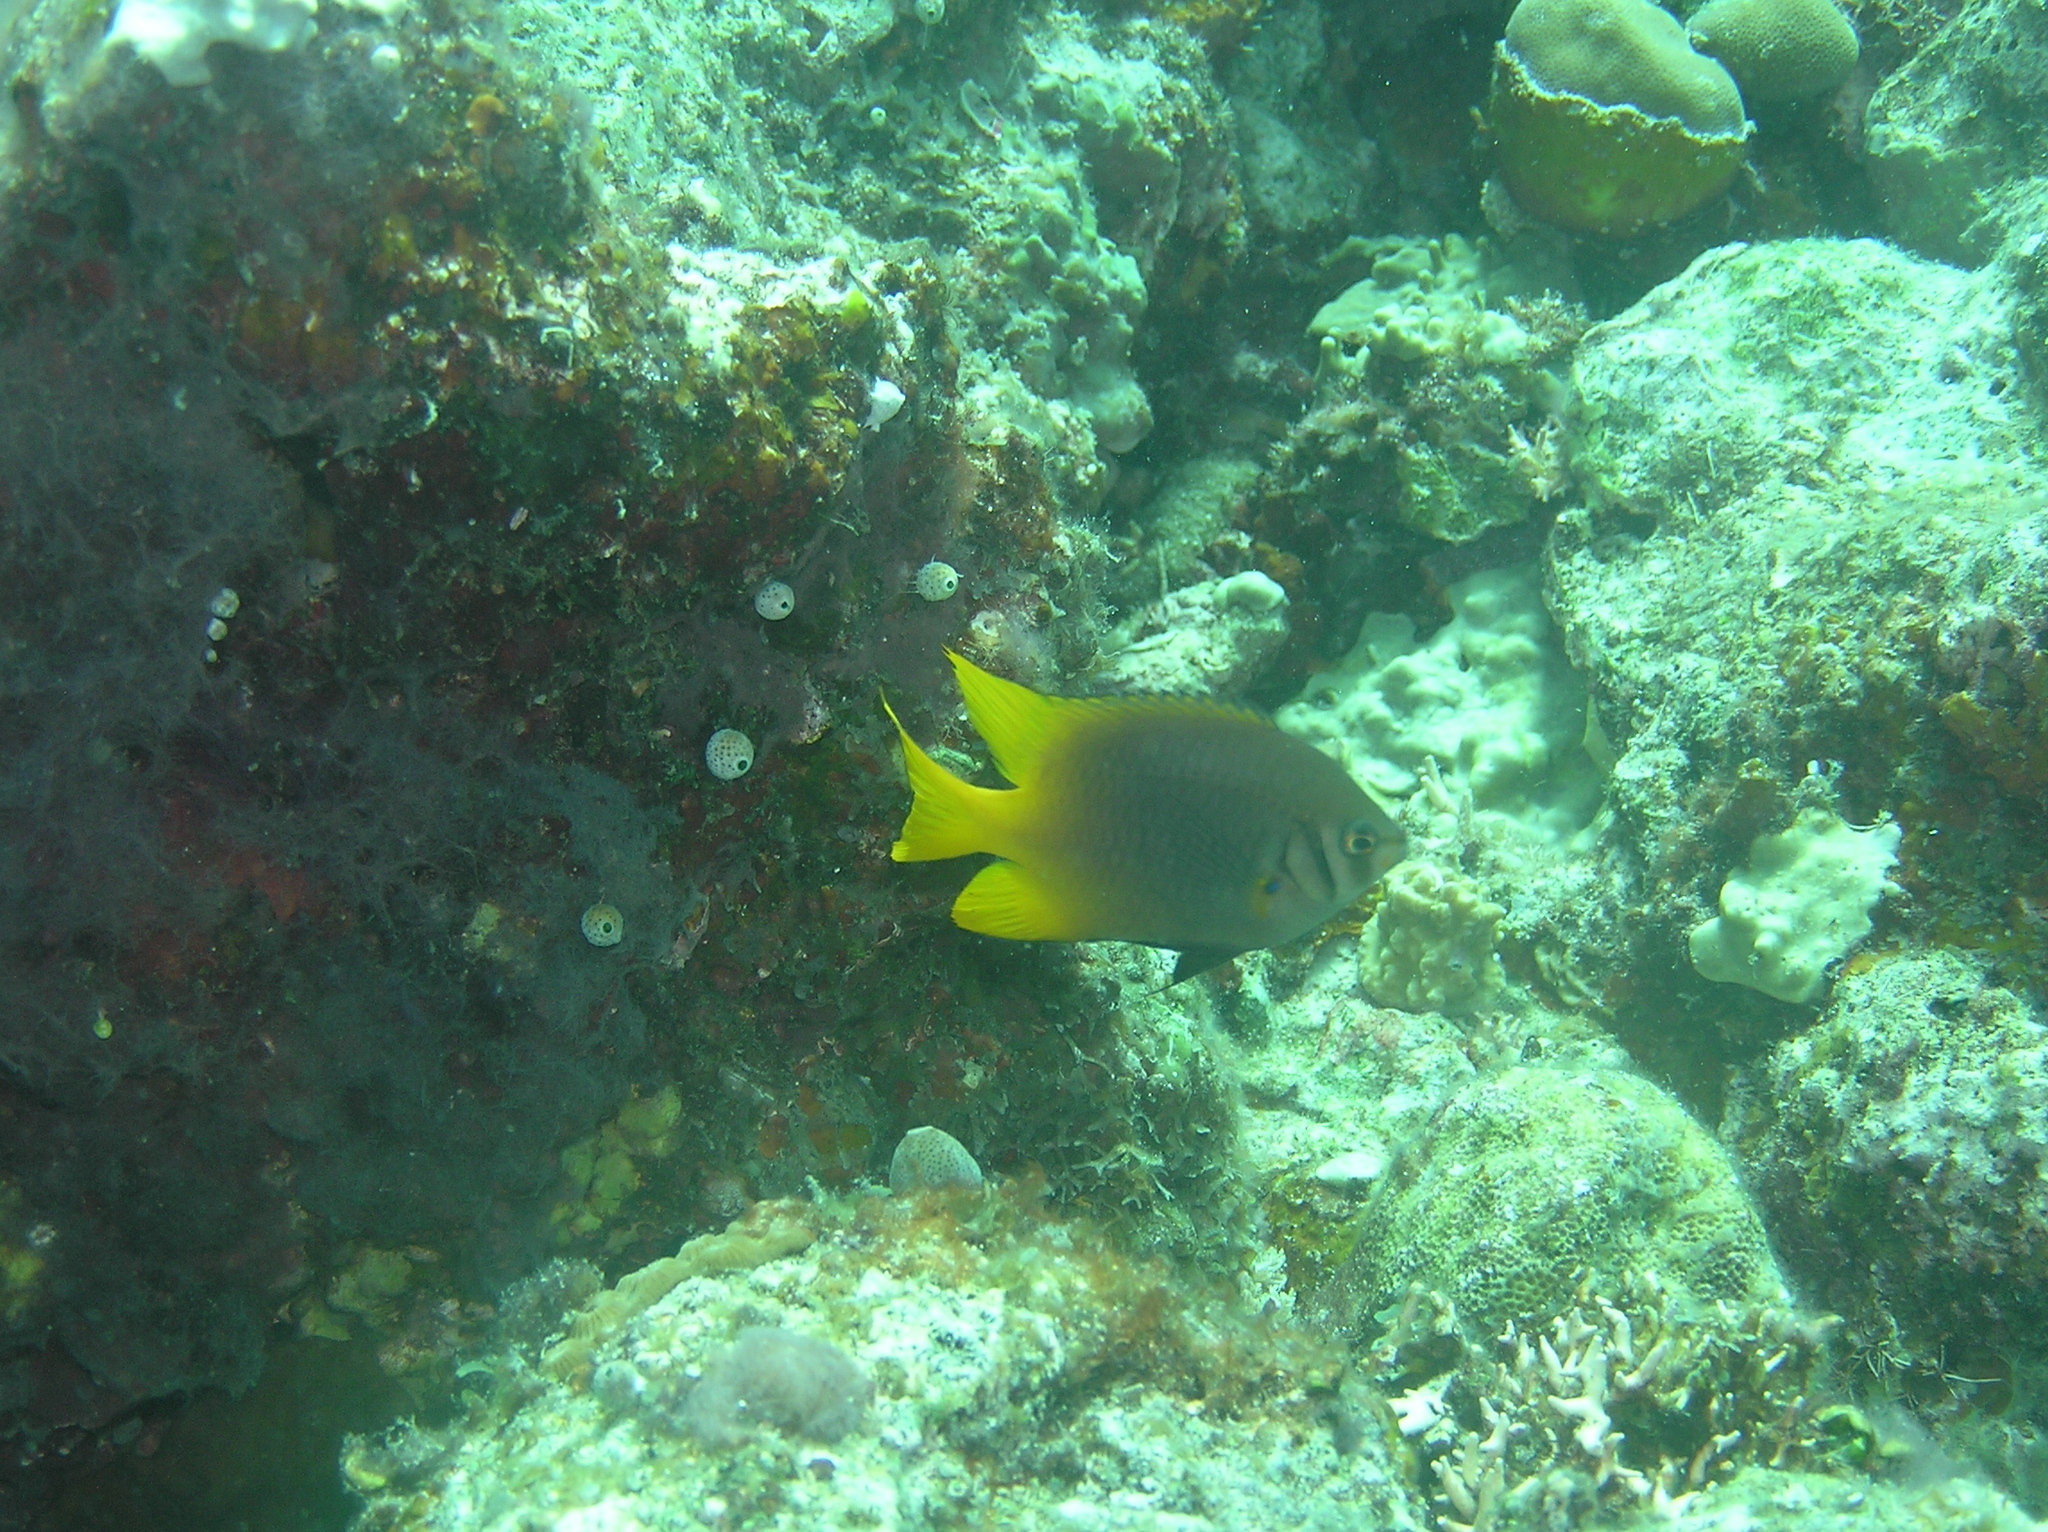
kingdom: Animalia
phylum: Chordata
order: Perciformes
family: Pomacentridae
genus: Neoglyphidodon
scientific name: Neoglyphidodon nigroris
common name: Behn's damsel
